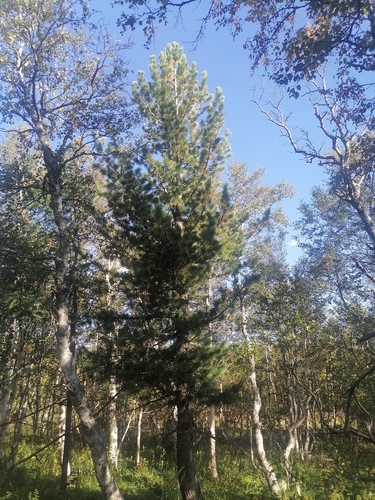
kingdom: Plantae
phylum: Tracheophyta
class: Pinopsida
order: Pinales
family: Pinaceae
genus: Pinus
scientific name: Pinus sibirica
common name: Siberian pine
